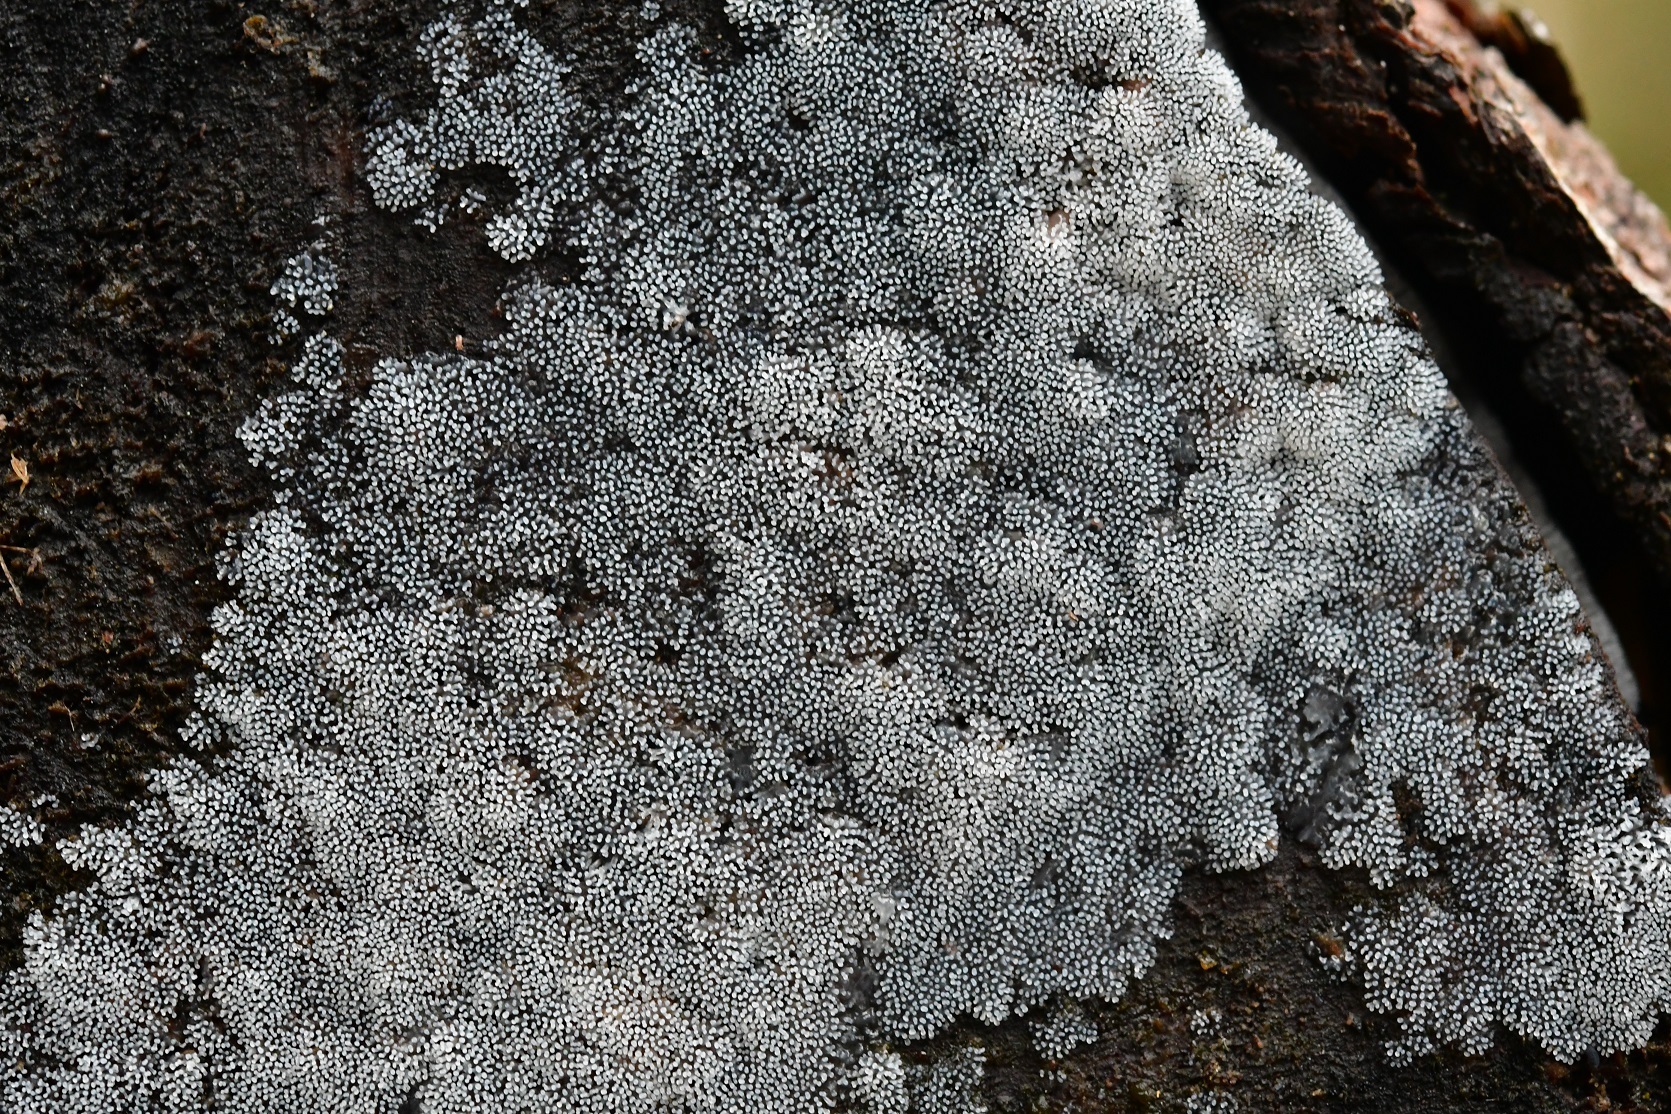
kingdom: Protozoa
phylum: Mycetozoa
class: Protosteliomycetes
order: Ceratiomyxales
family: Ceratiomyxaceae
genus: Ceratiomyxa
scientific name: Ceratiomyxa fruticulosa
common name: Honeycomb coral slime mold
